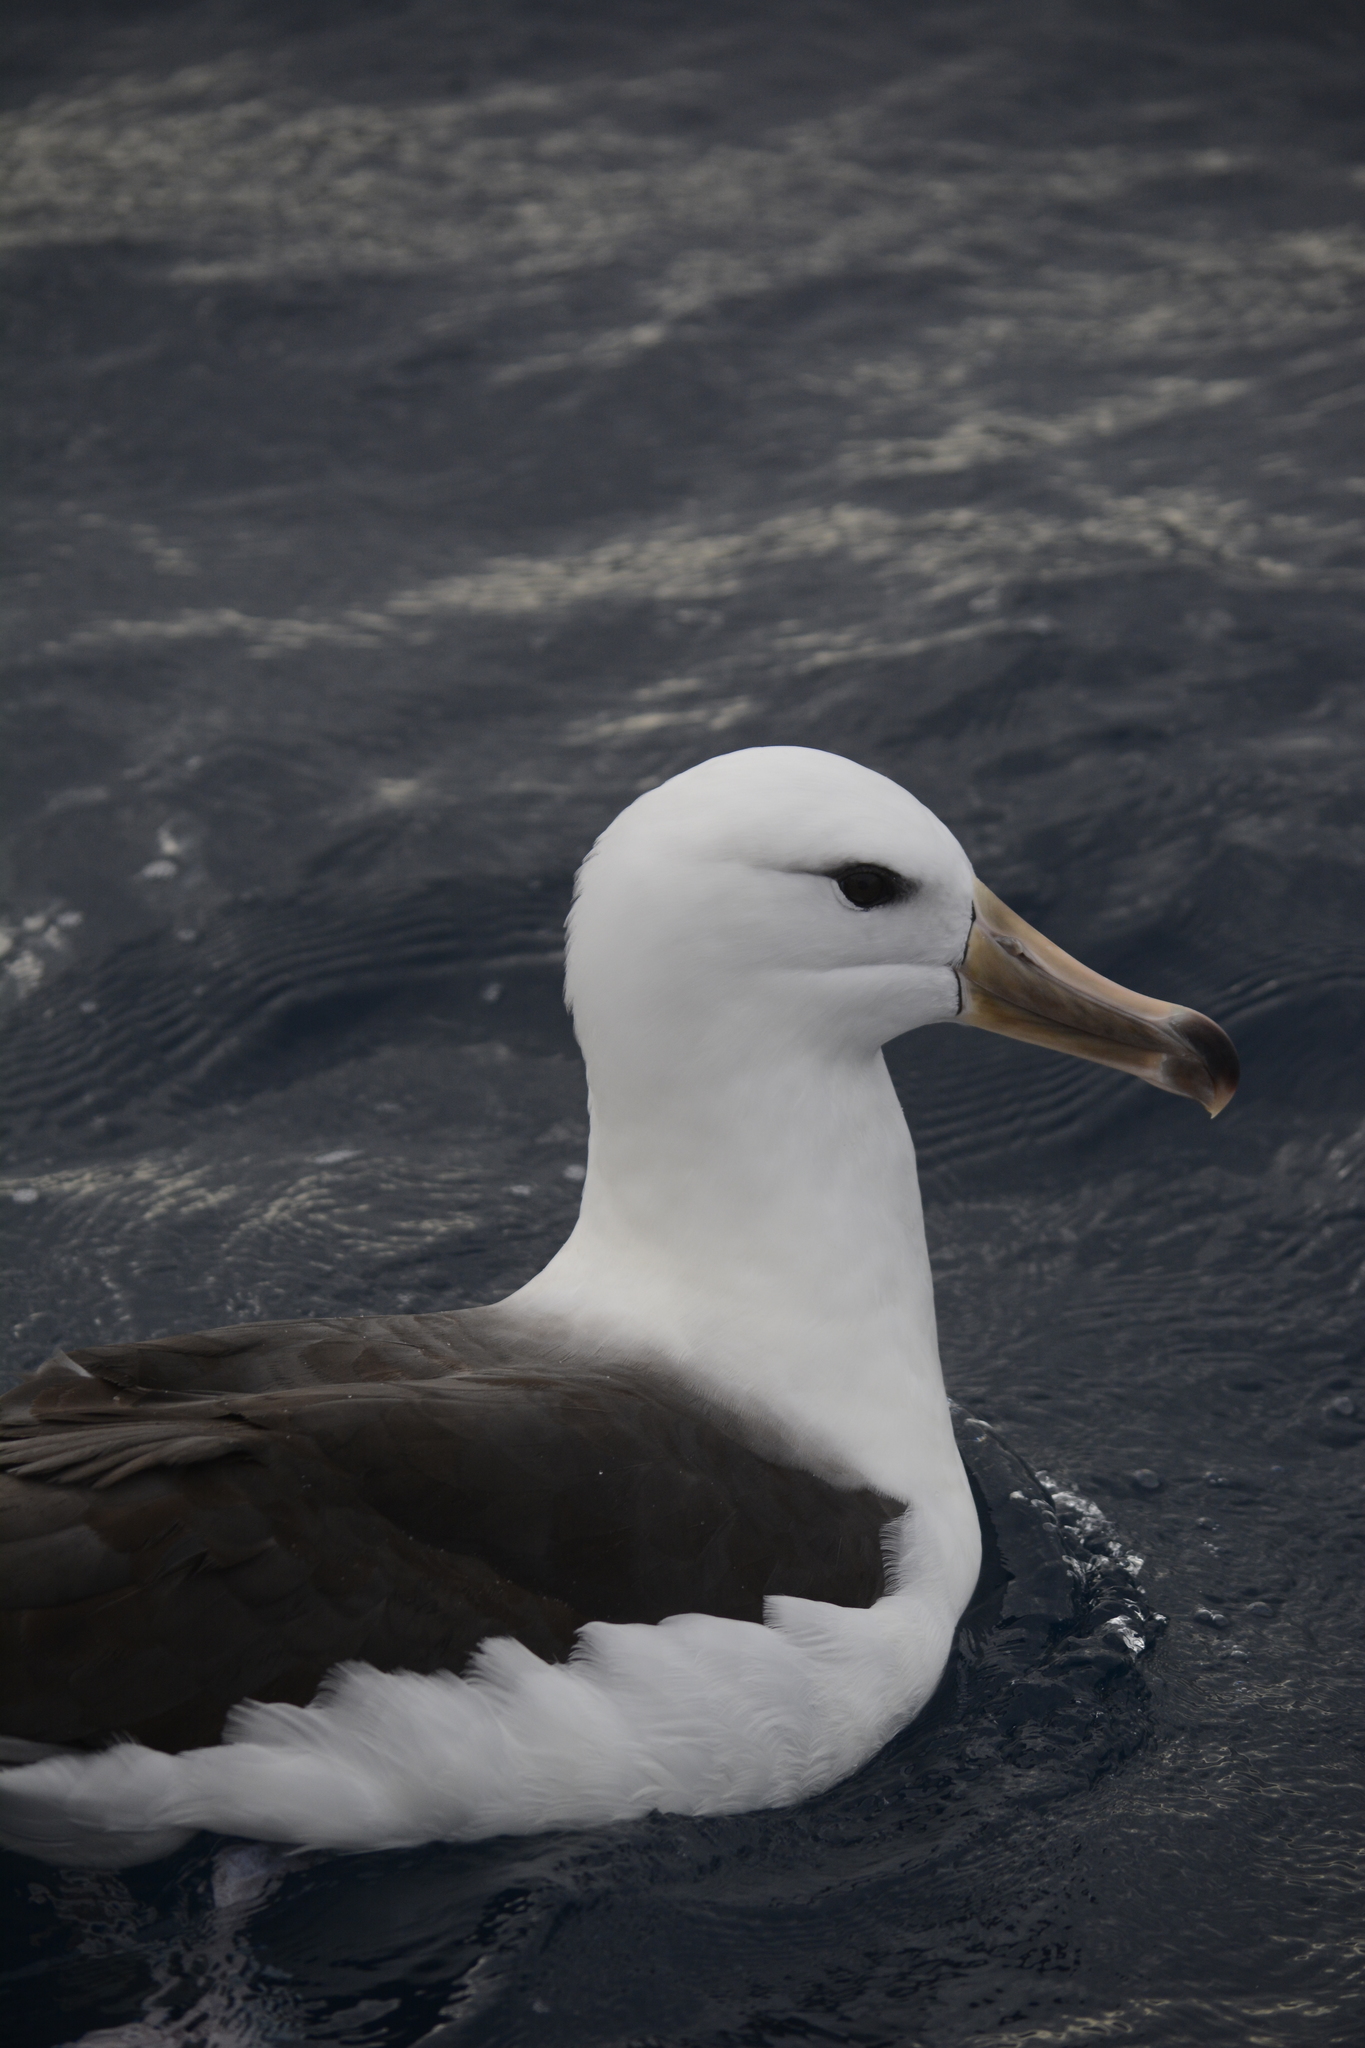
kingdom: Animalia
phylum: Chordata
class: Aves
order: Procellariiformes
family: Diomedeidae
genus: Thalassarche
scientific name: Thalassarche melanophris
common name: Black-browed albatross
